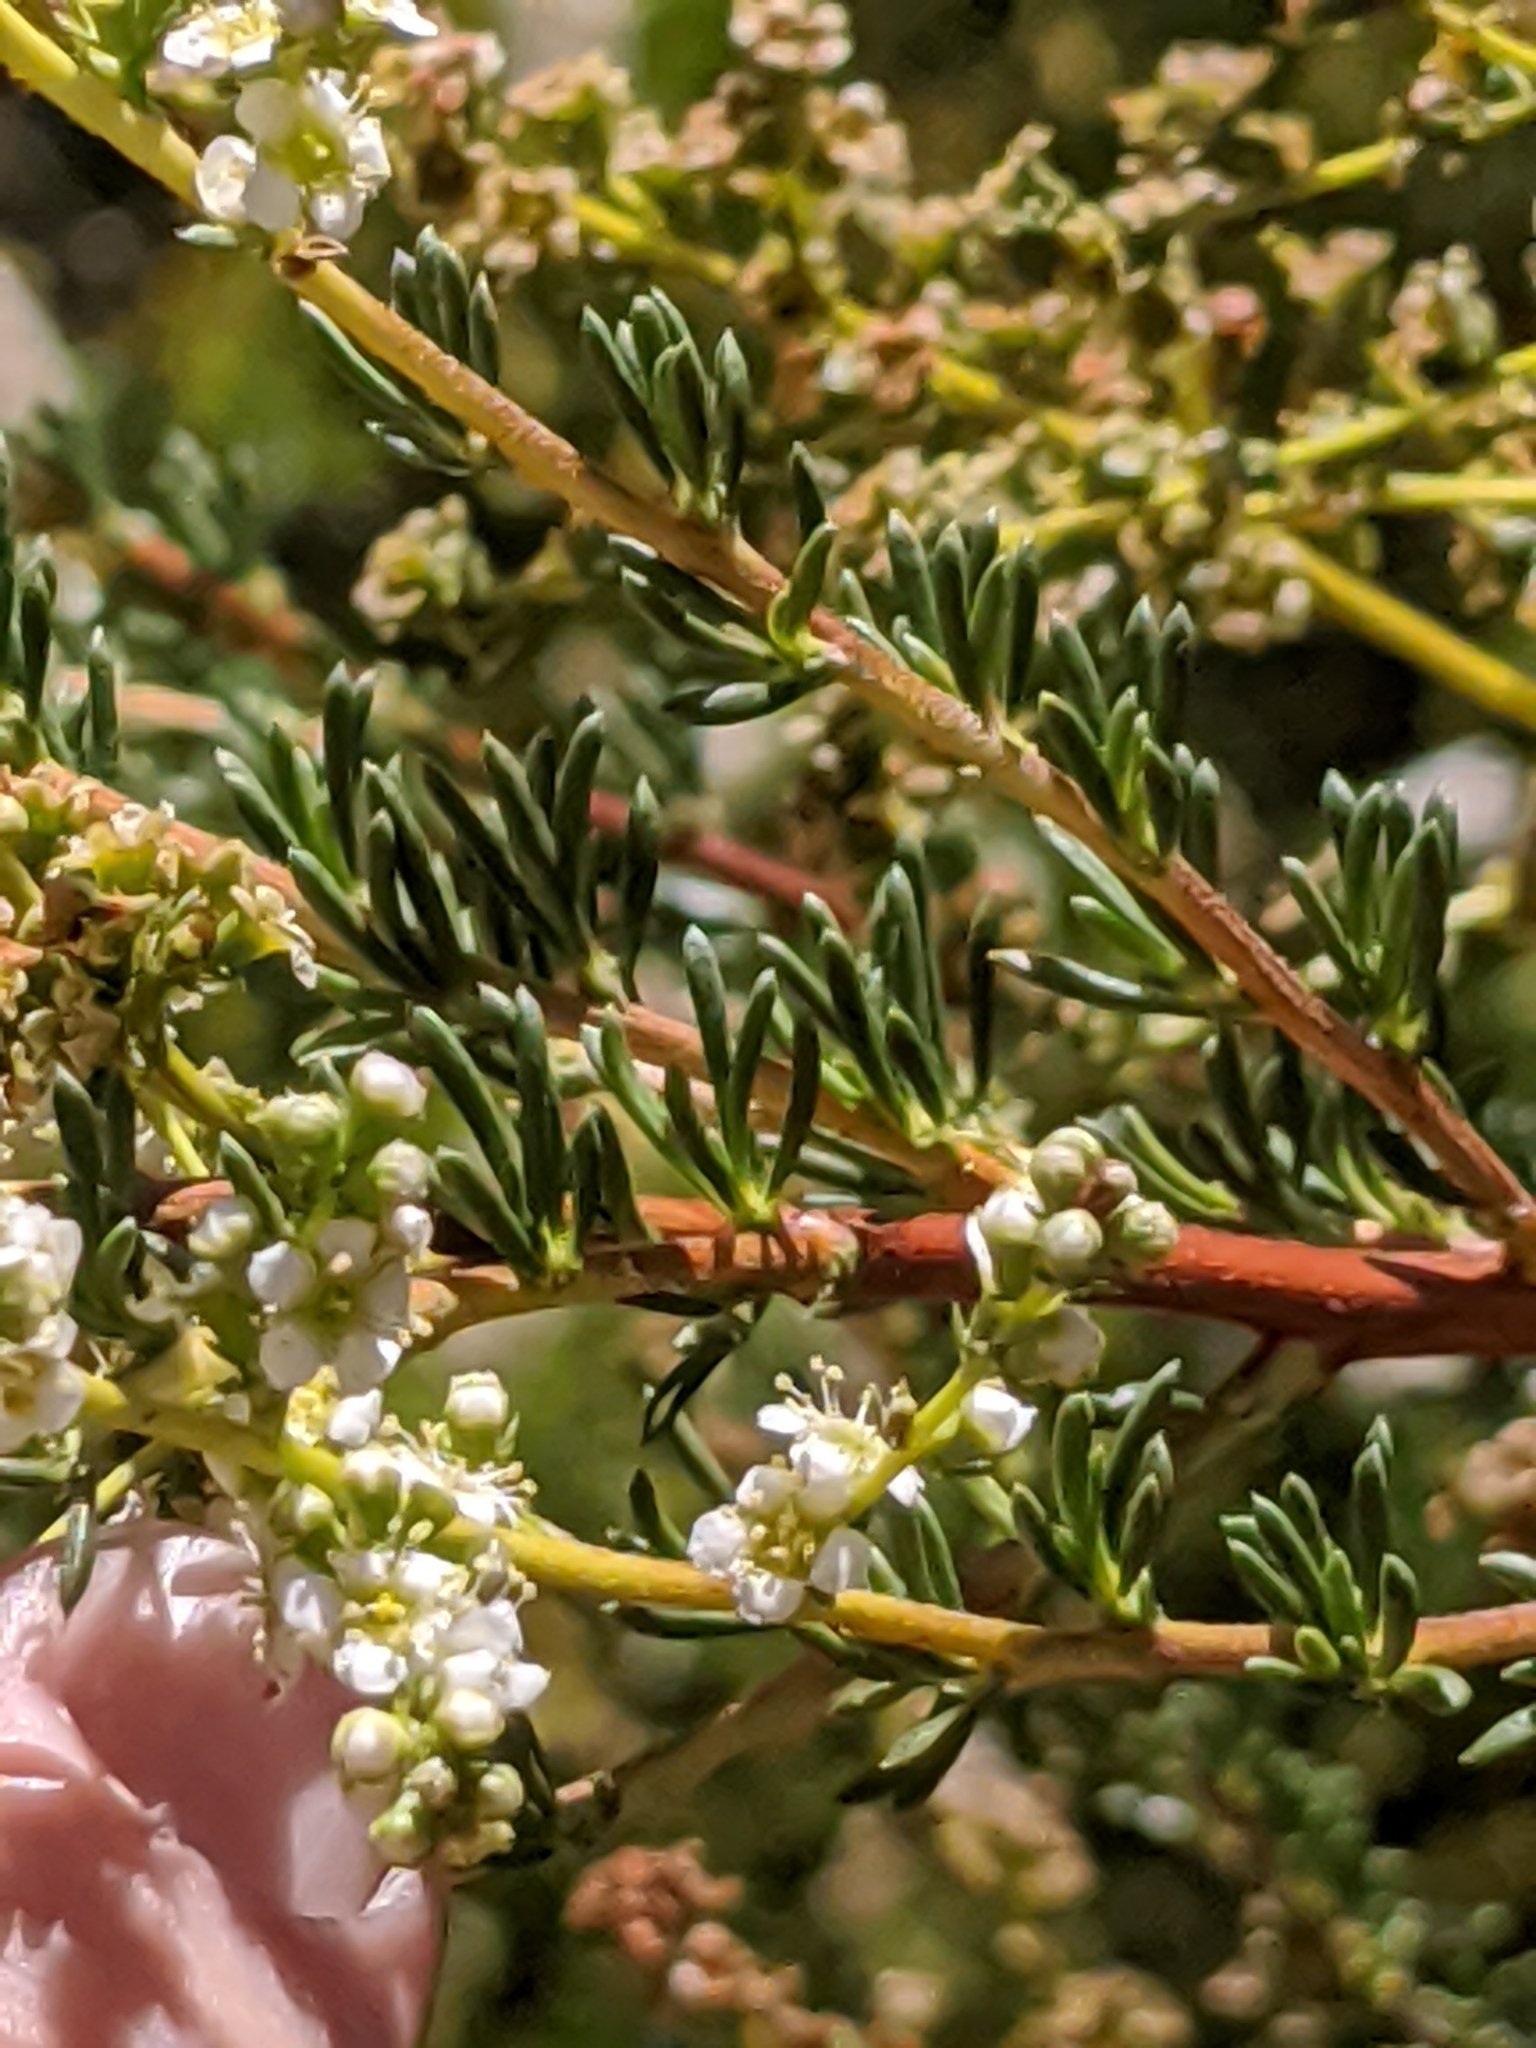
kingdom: Plantae
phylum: Tracheophyta
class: Magnoliopsida
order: Rosales
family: Rosaceae
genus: Adenostoma
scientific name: Adenostoma fasciculatum
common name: Chamise
